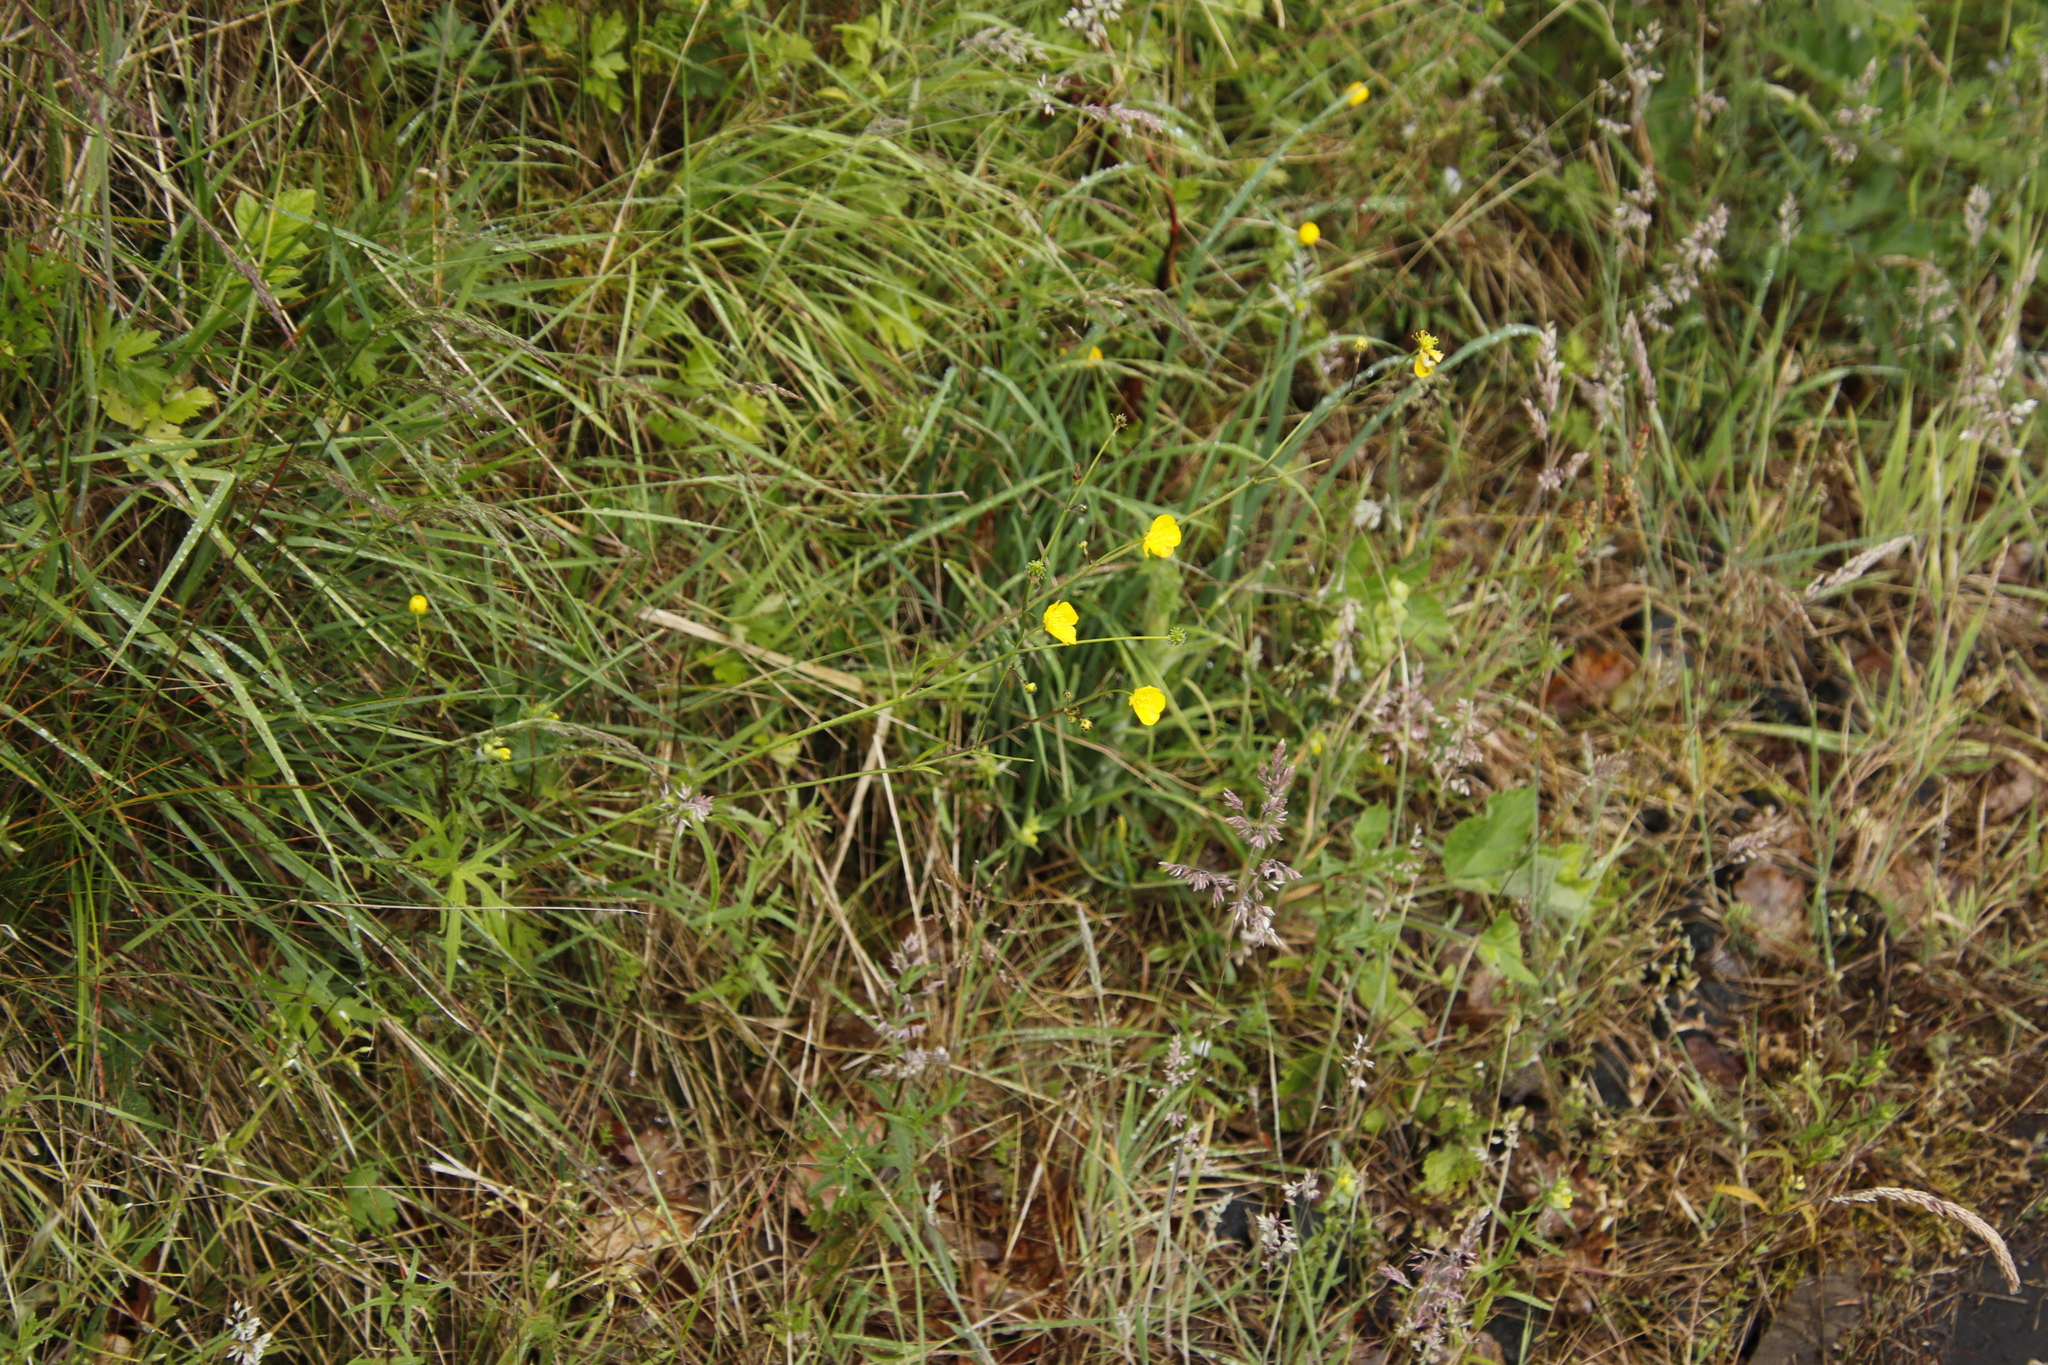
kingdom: Plantae
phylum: Tracheophyta
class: Magnoliopsida
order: Ranunculales
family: Ranunculaceae
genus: Ranunculus
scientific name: Ranunculus acris
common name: Meadow buttercup
